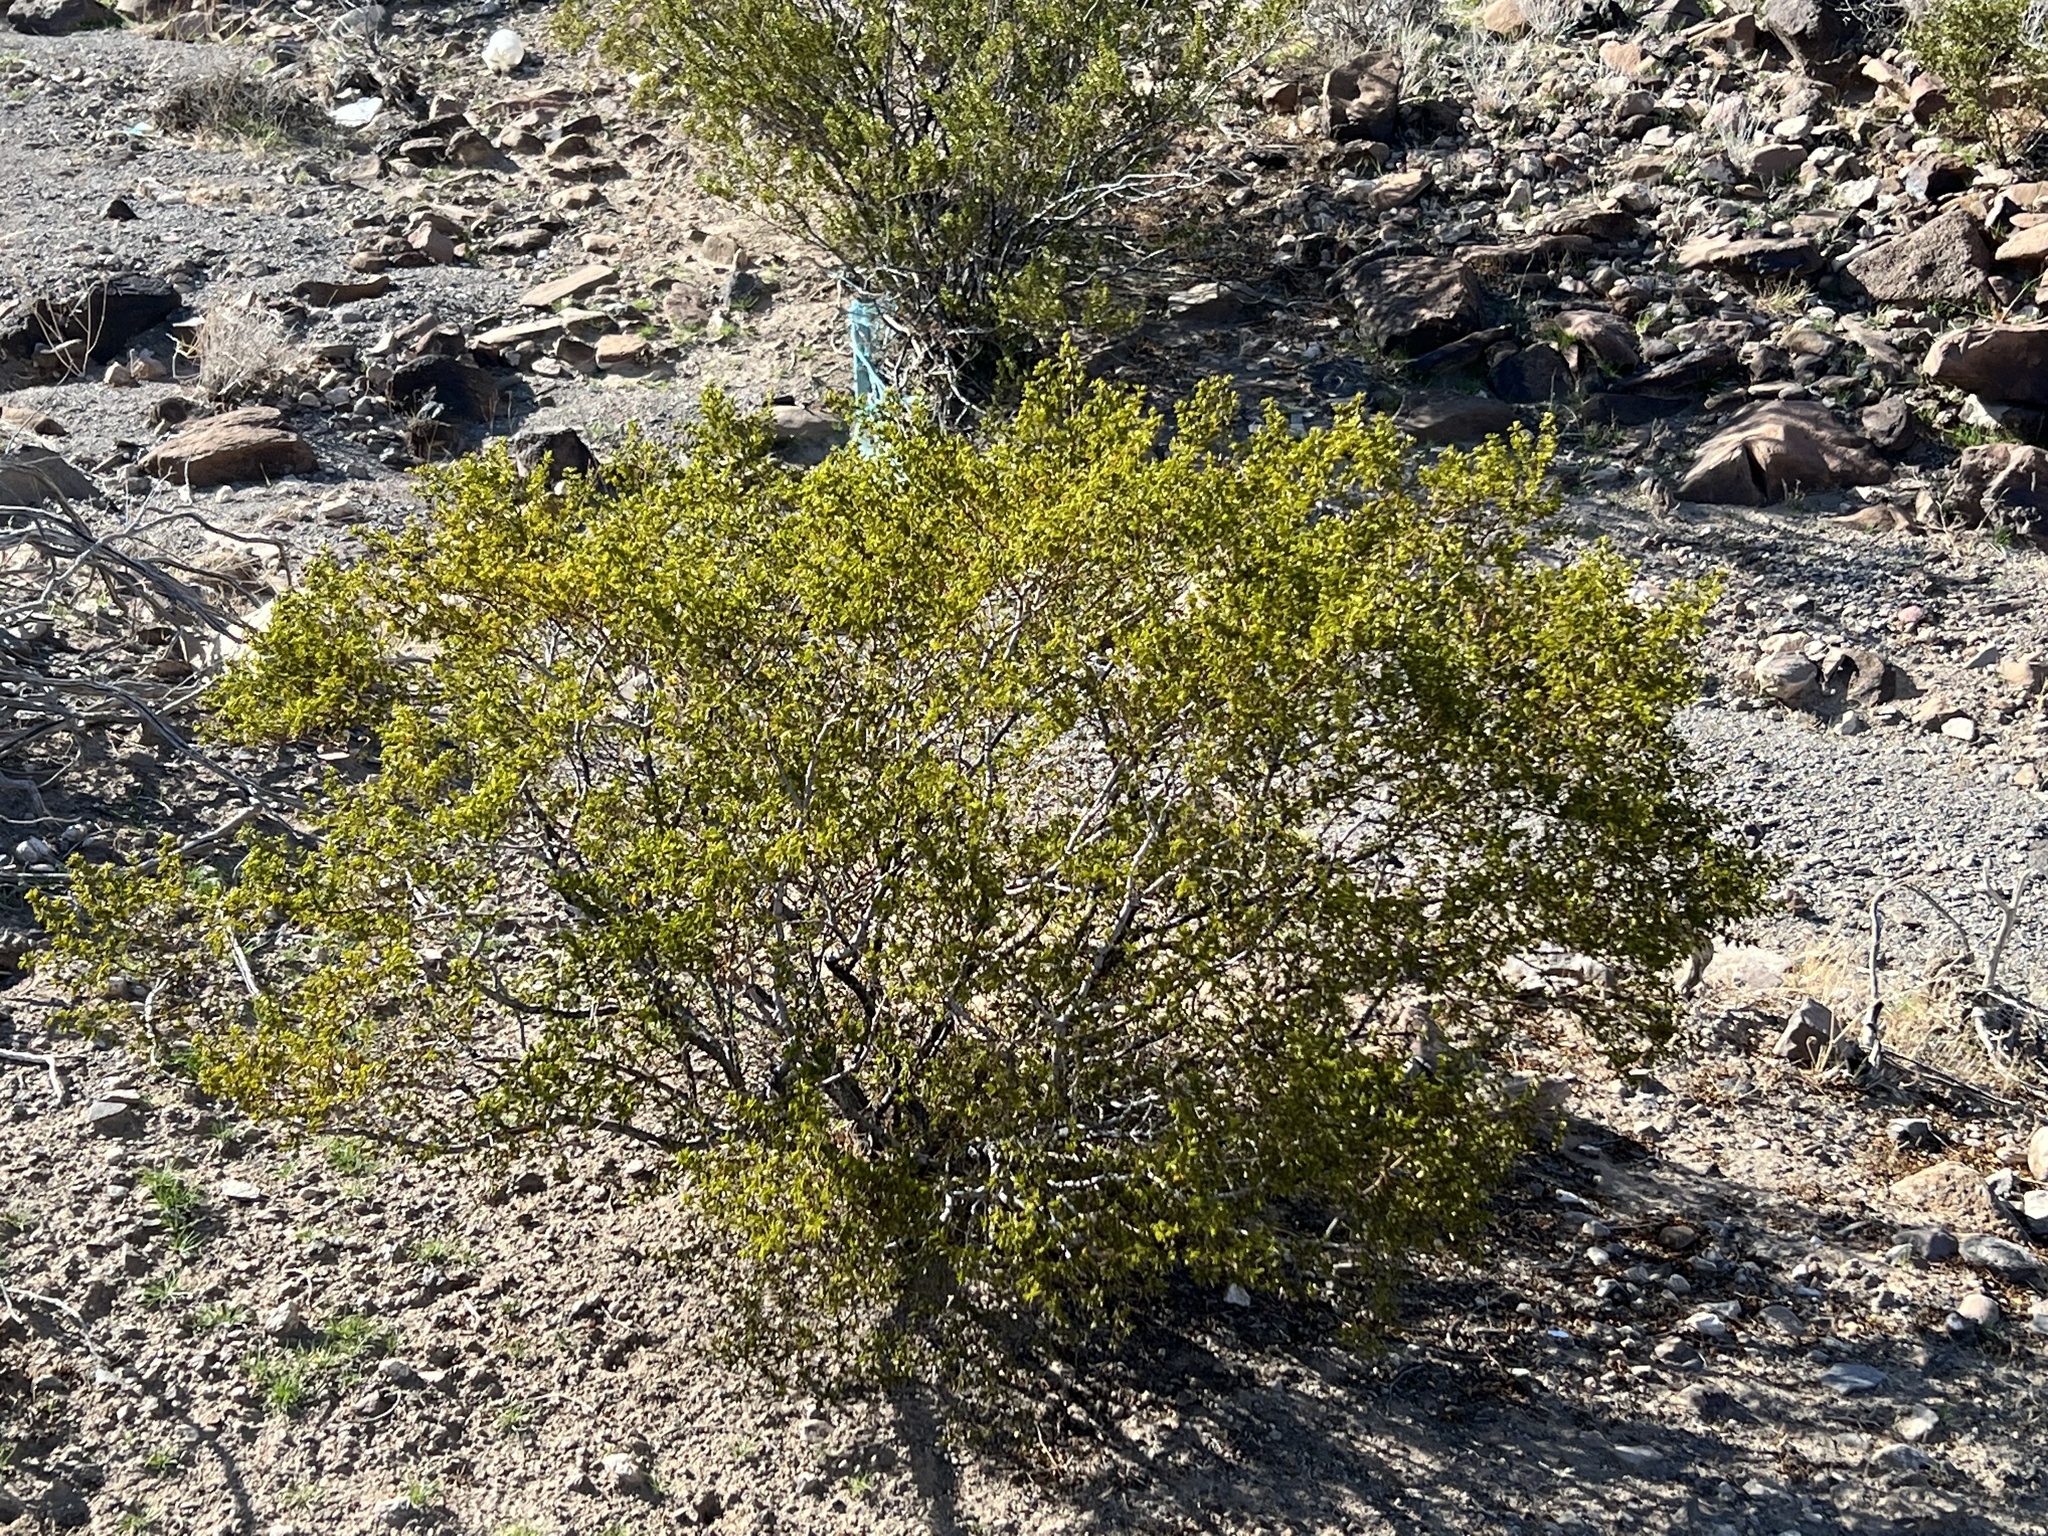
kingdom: Plantae
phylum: Tracheophyta
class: Magnoliopsida
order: Zygophyllales
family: Zygophyllaceae
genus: Larrea
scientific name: Larrea tridentata
